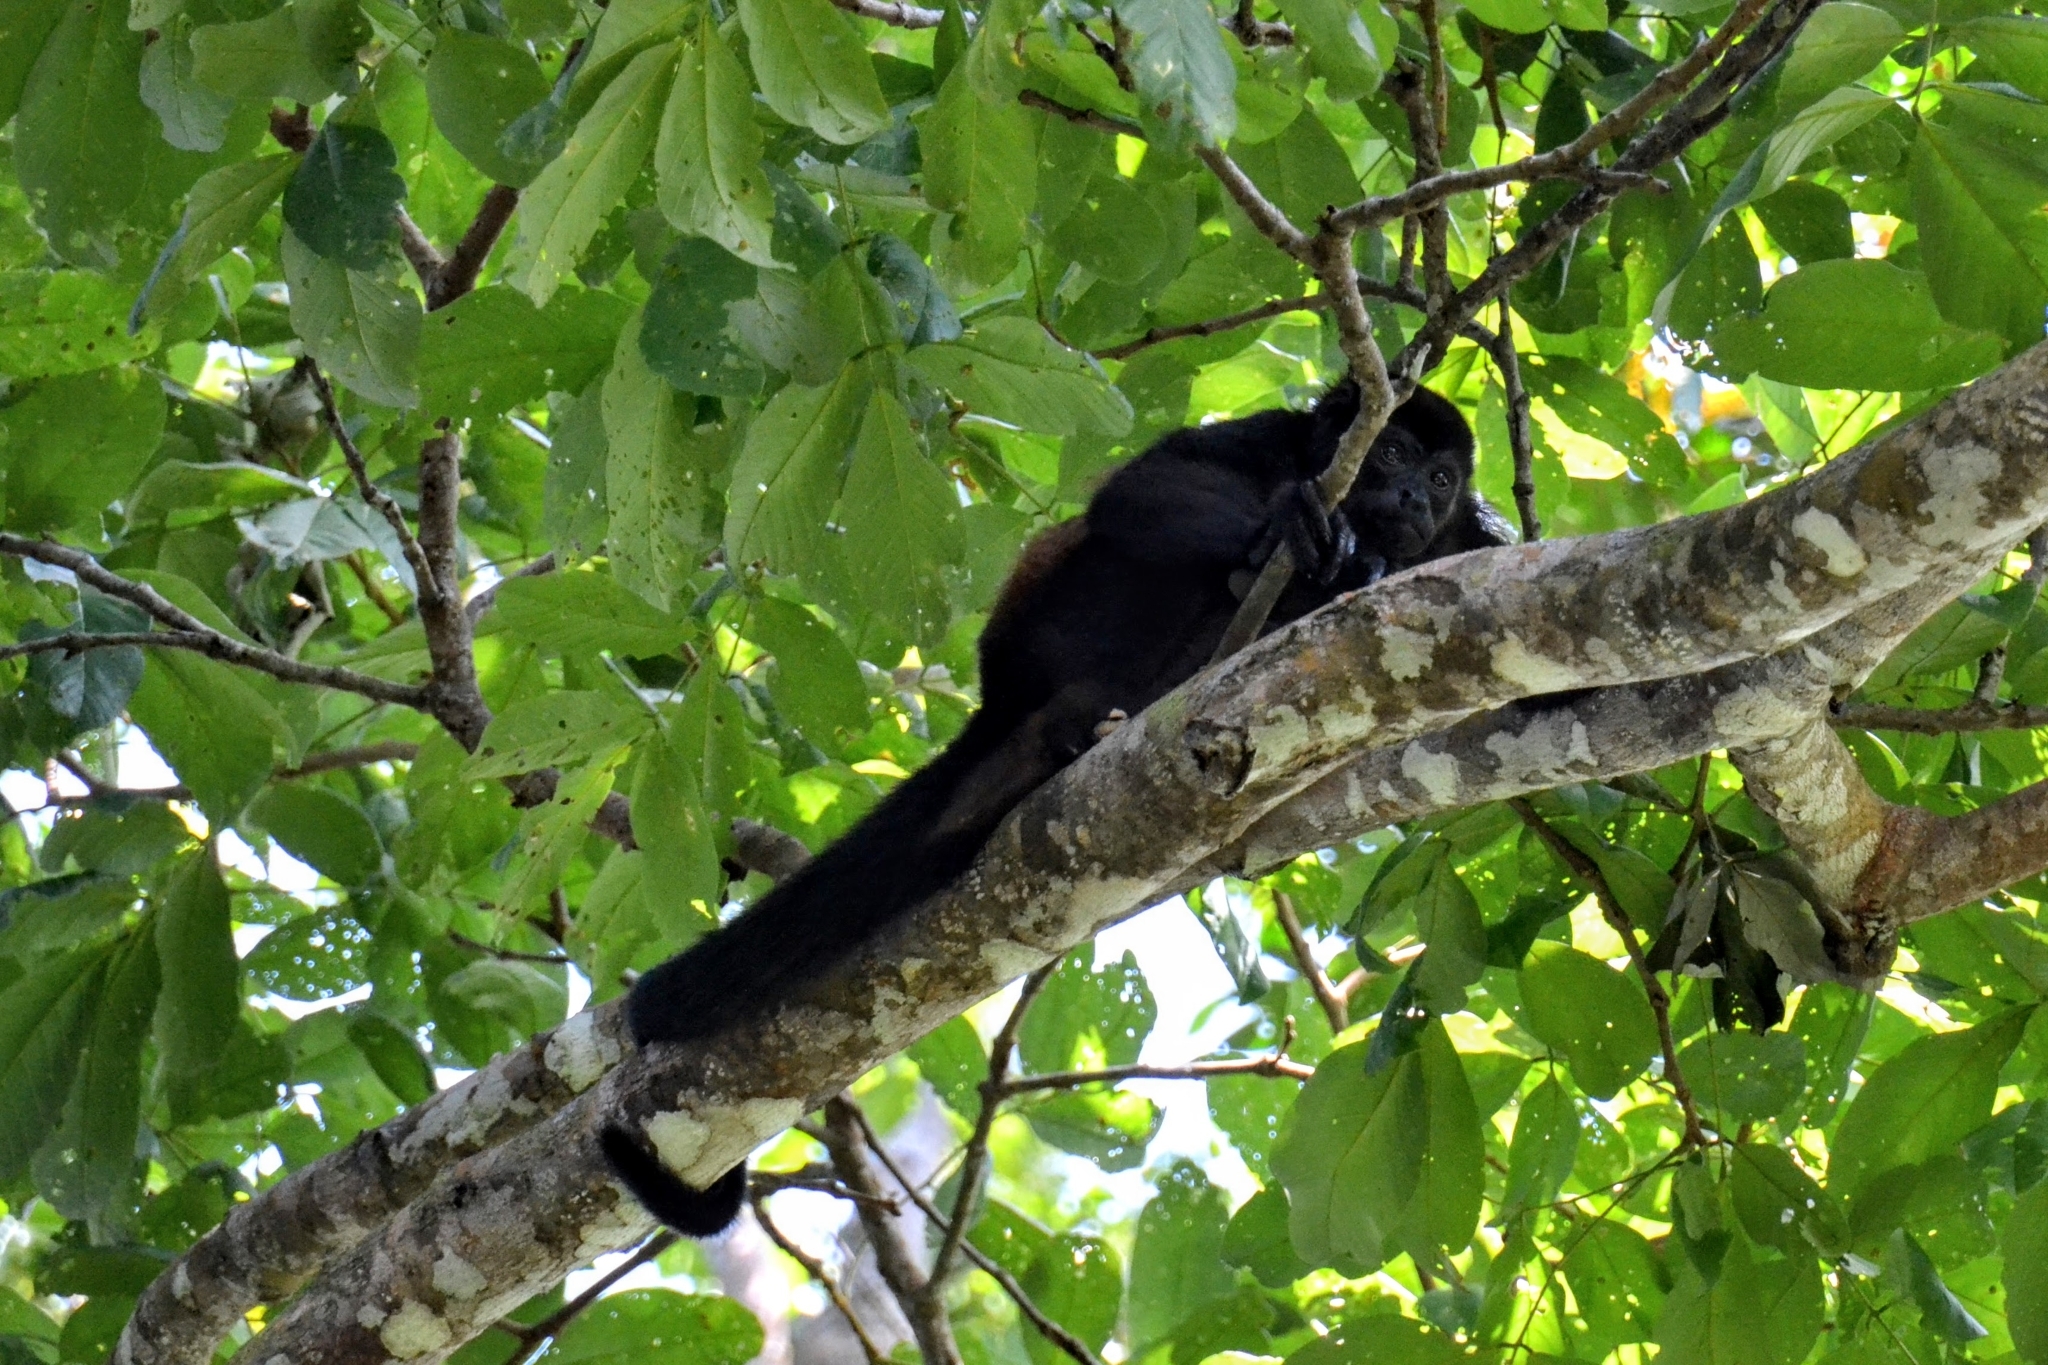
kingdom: Animalia
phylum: Chordata
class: Mammalia
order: Primates
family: Atelidae
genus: Alouatta
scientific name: Alouatta palliata
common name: Mantled howler
